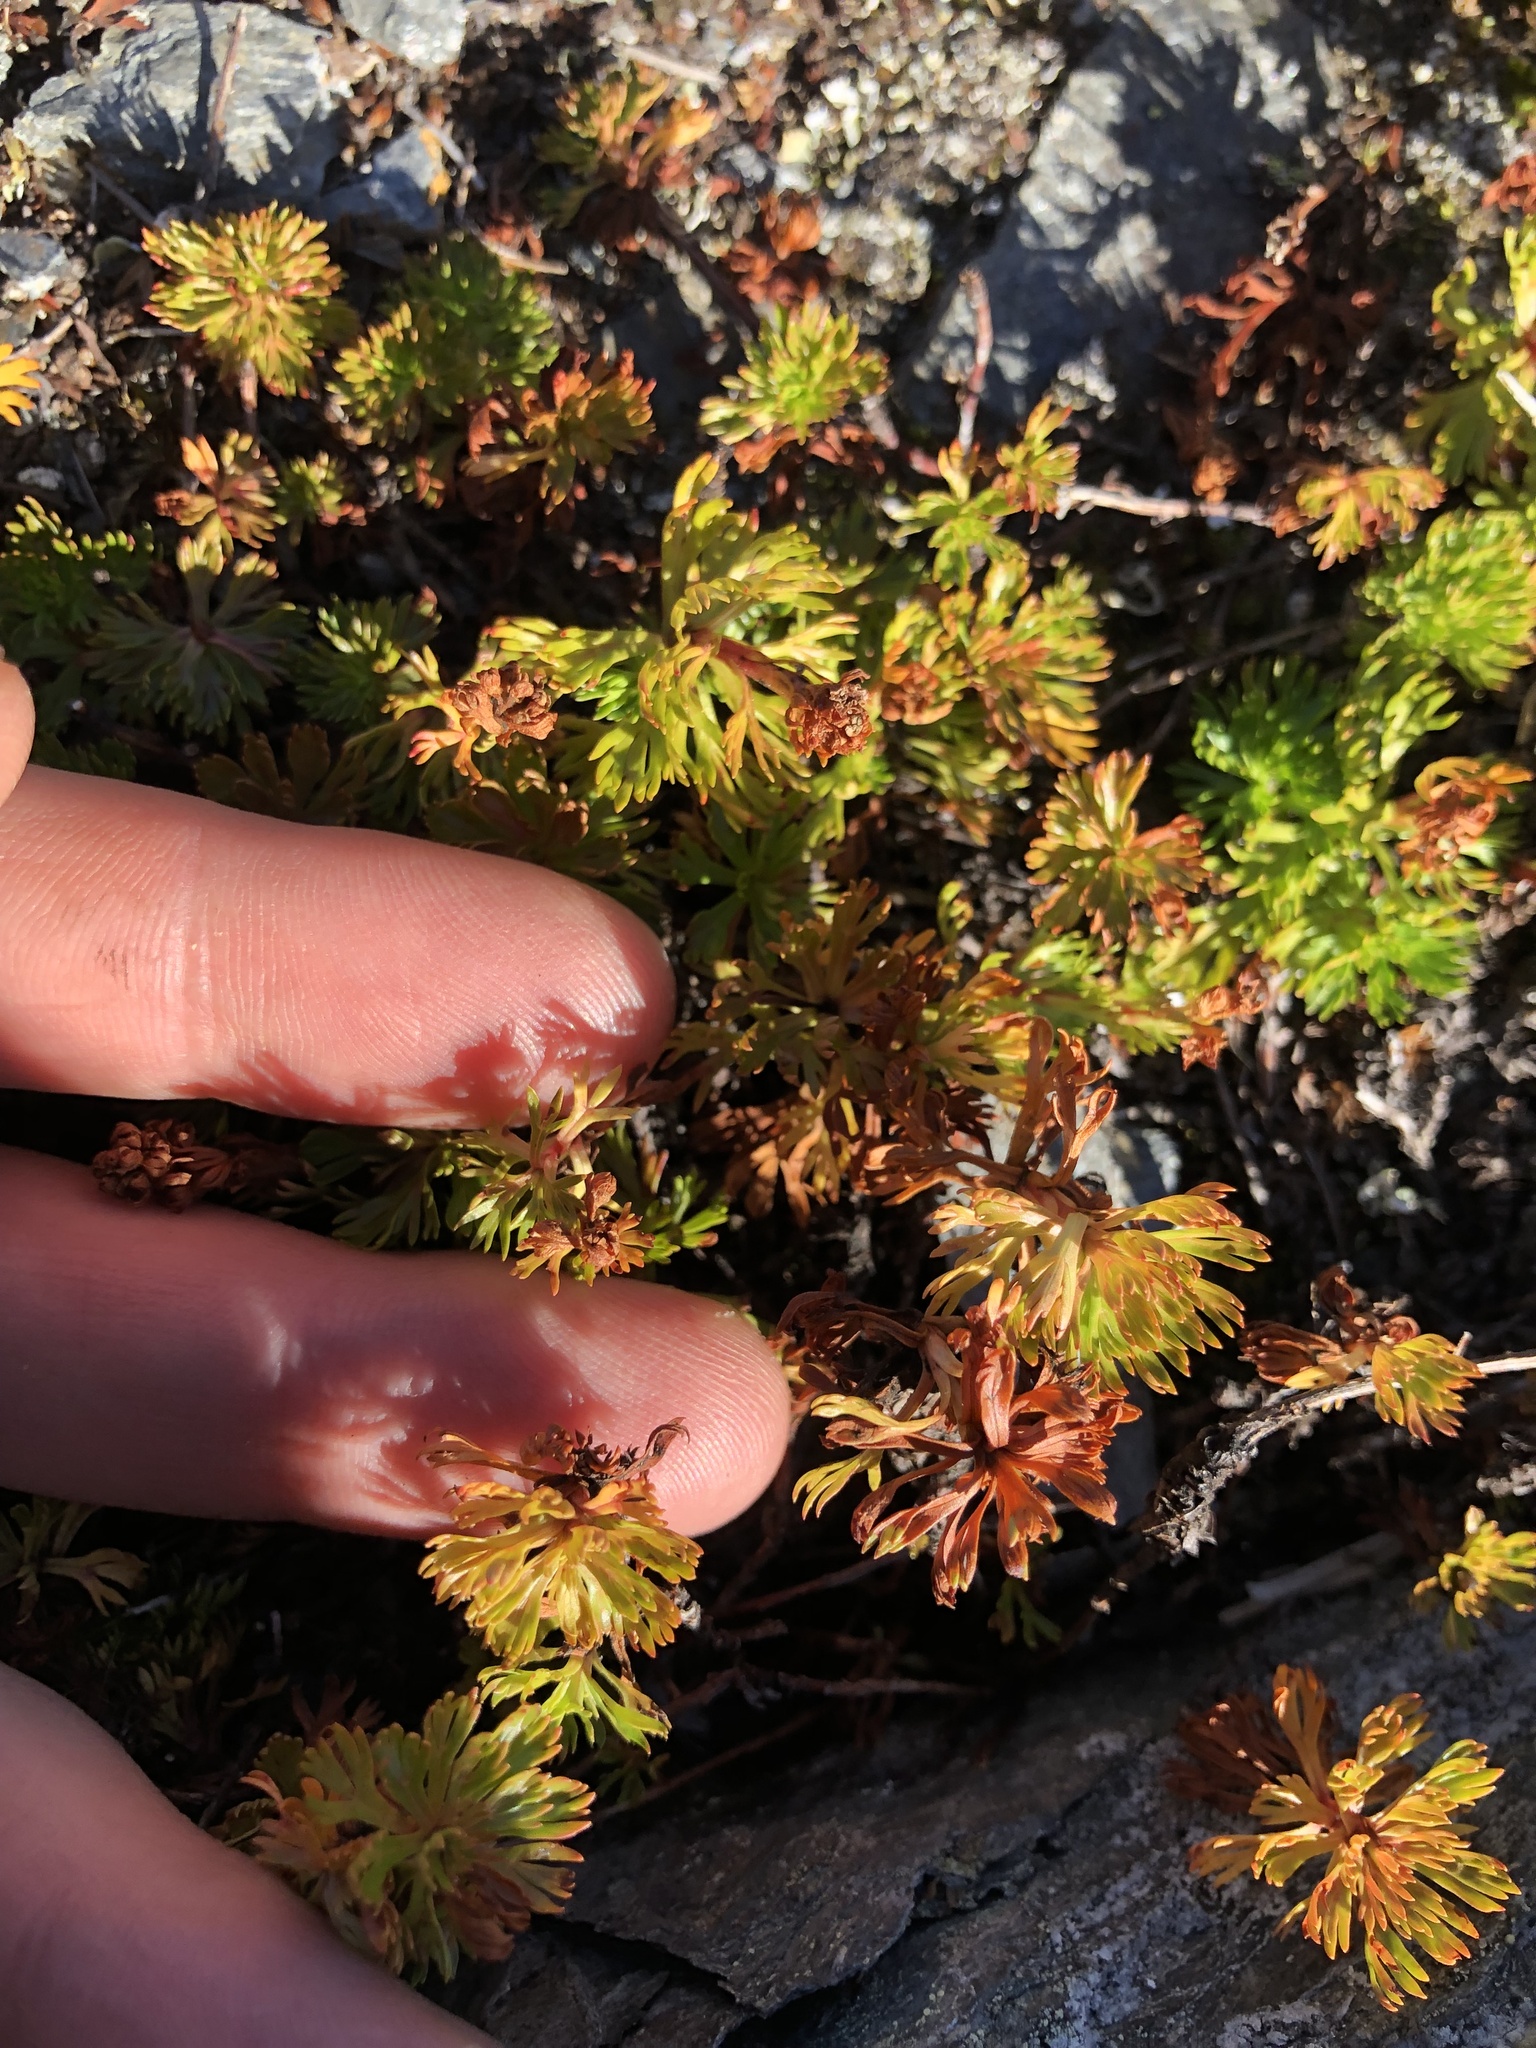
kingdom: Plantae
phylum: Tracheophyta
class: Magnoliopsida
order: Rosales
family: Rosaceae
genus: Luetkea
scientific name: Luetkea pectinata
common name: Partridgefoot
